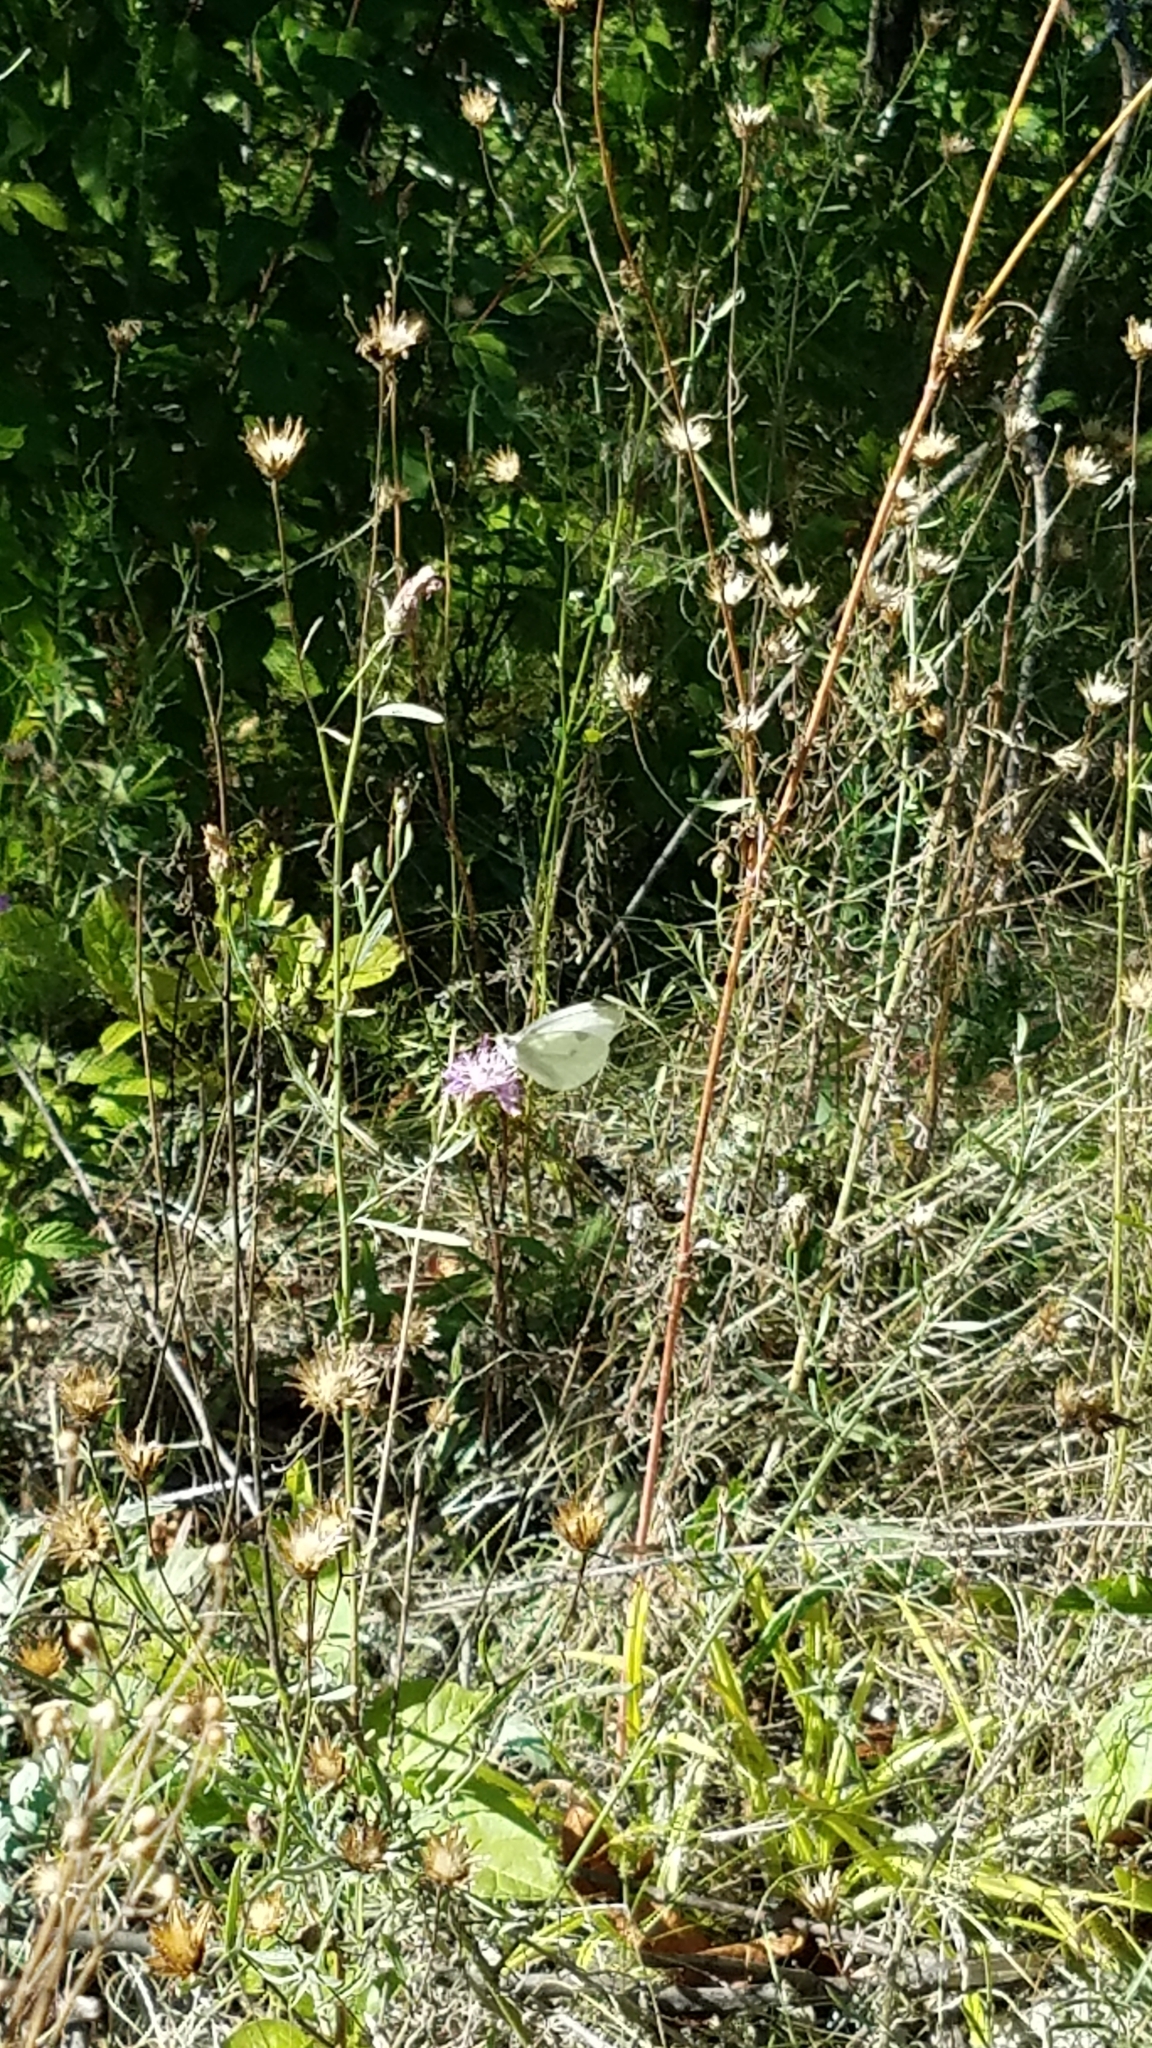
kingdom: Animalia
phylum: Arthropoda
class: Insecta
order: Lepidoptera
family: Pieridae
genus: Pieris
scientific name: Pieris rapae
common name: Small white
